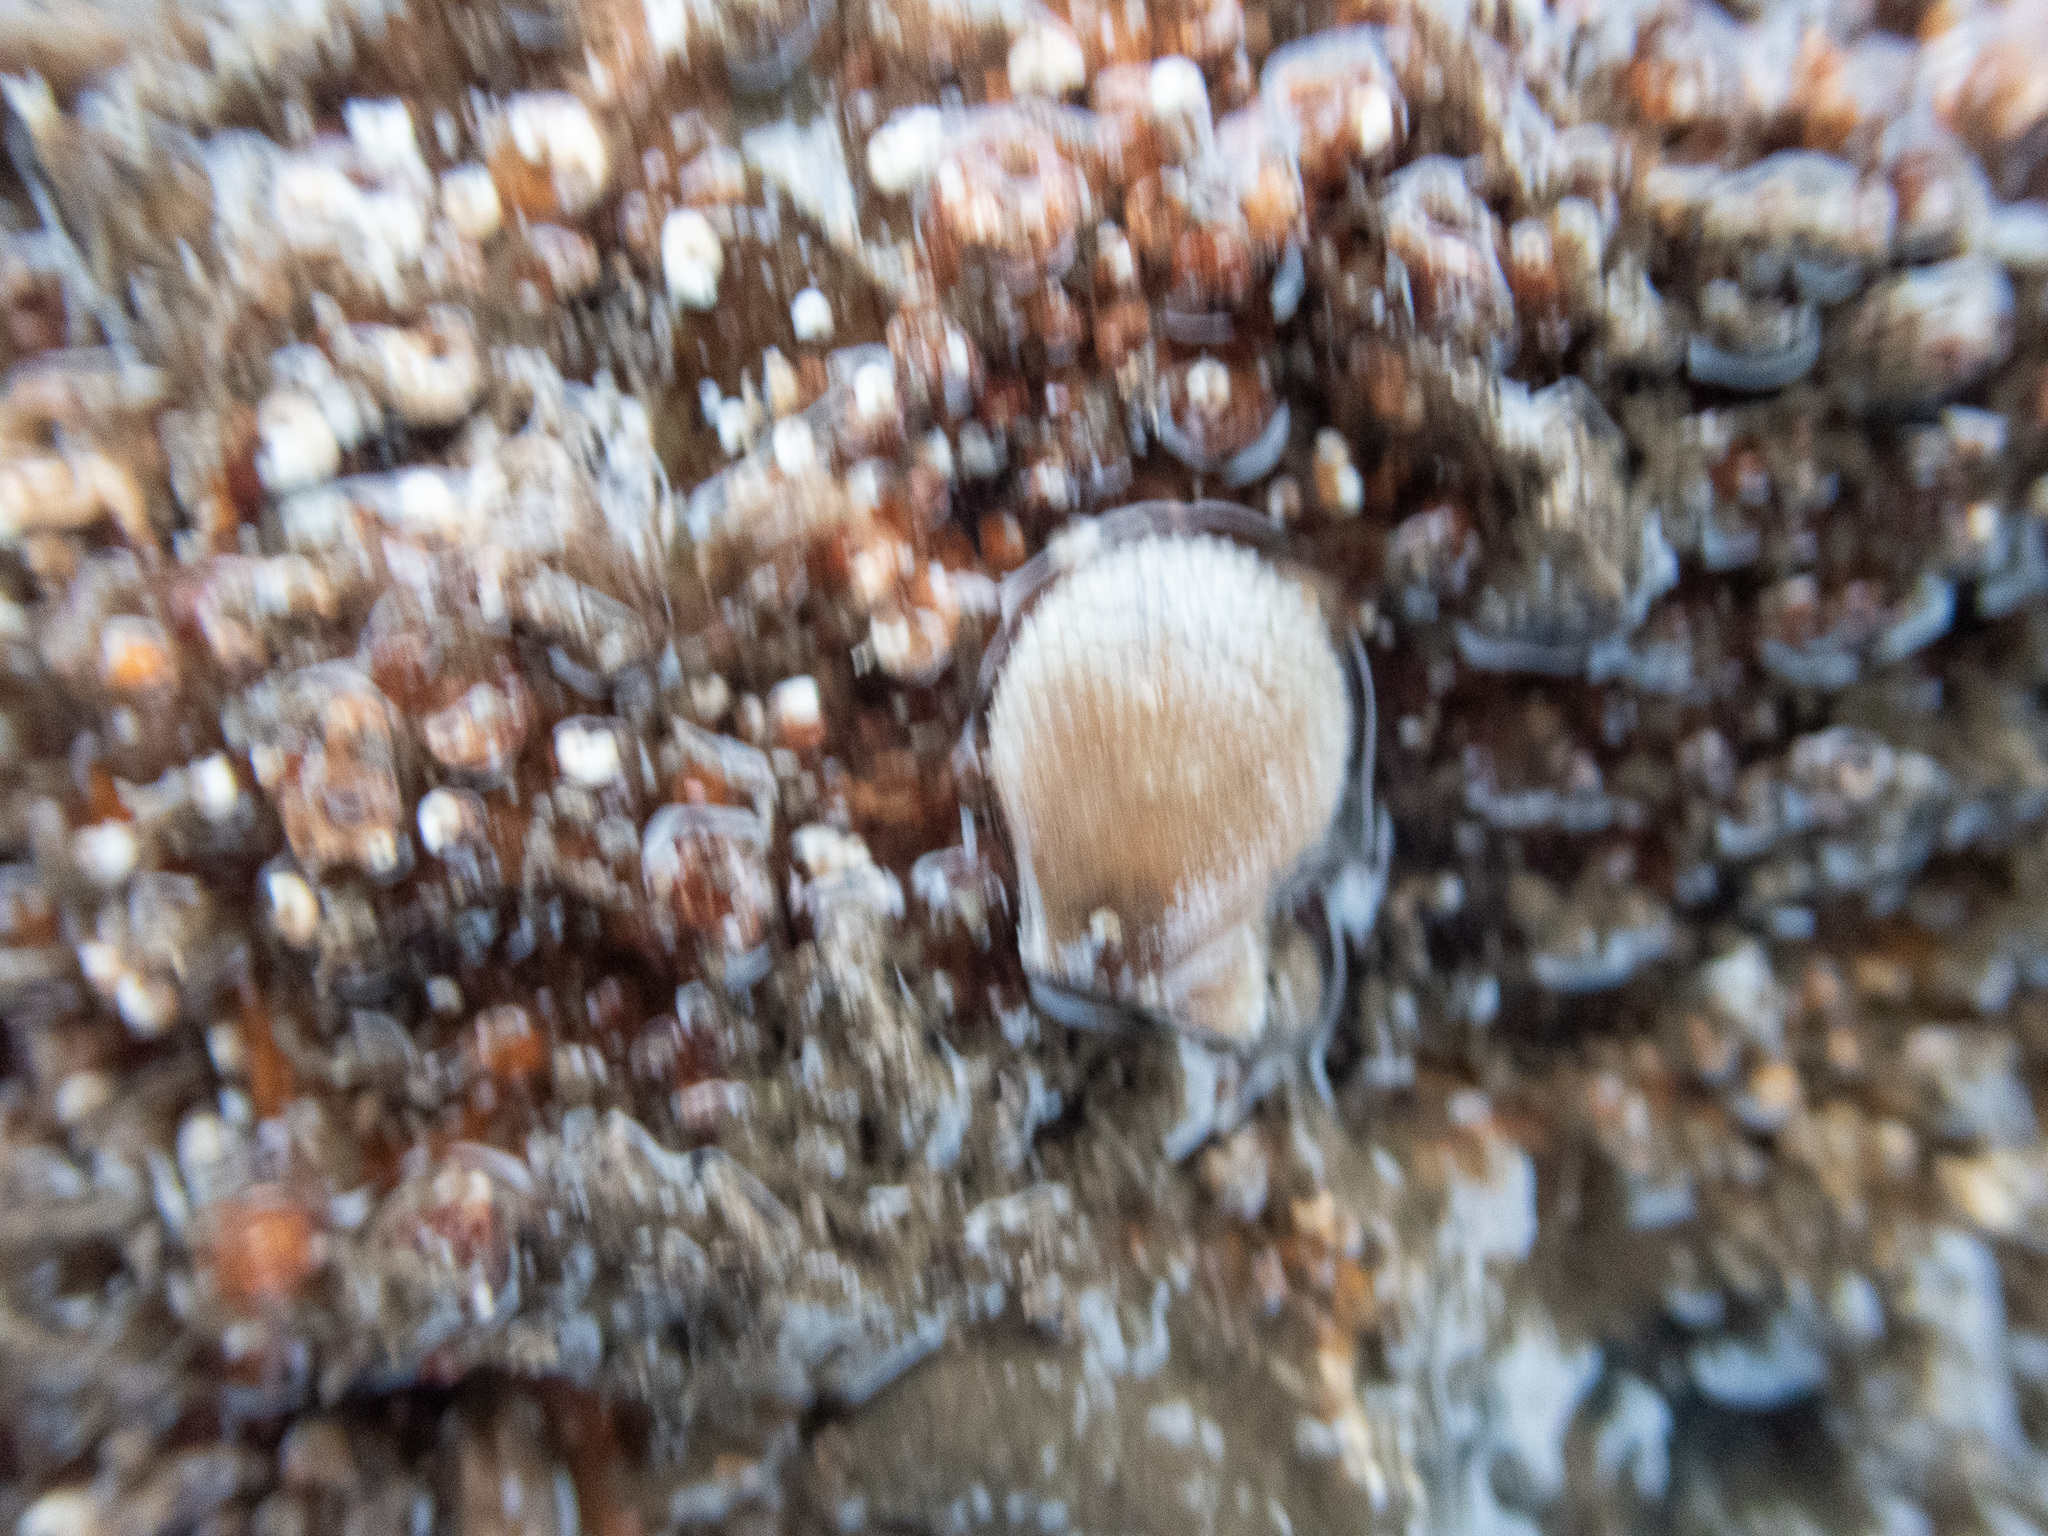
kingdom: Animalia
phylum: Mollusca
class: Bivalvia
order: Pectinida
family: Pectinidae
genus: Mimachlamys
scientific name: Mimachlamys varia
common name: Variegated scallop
